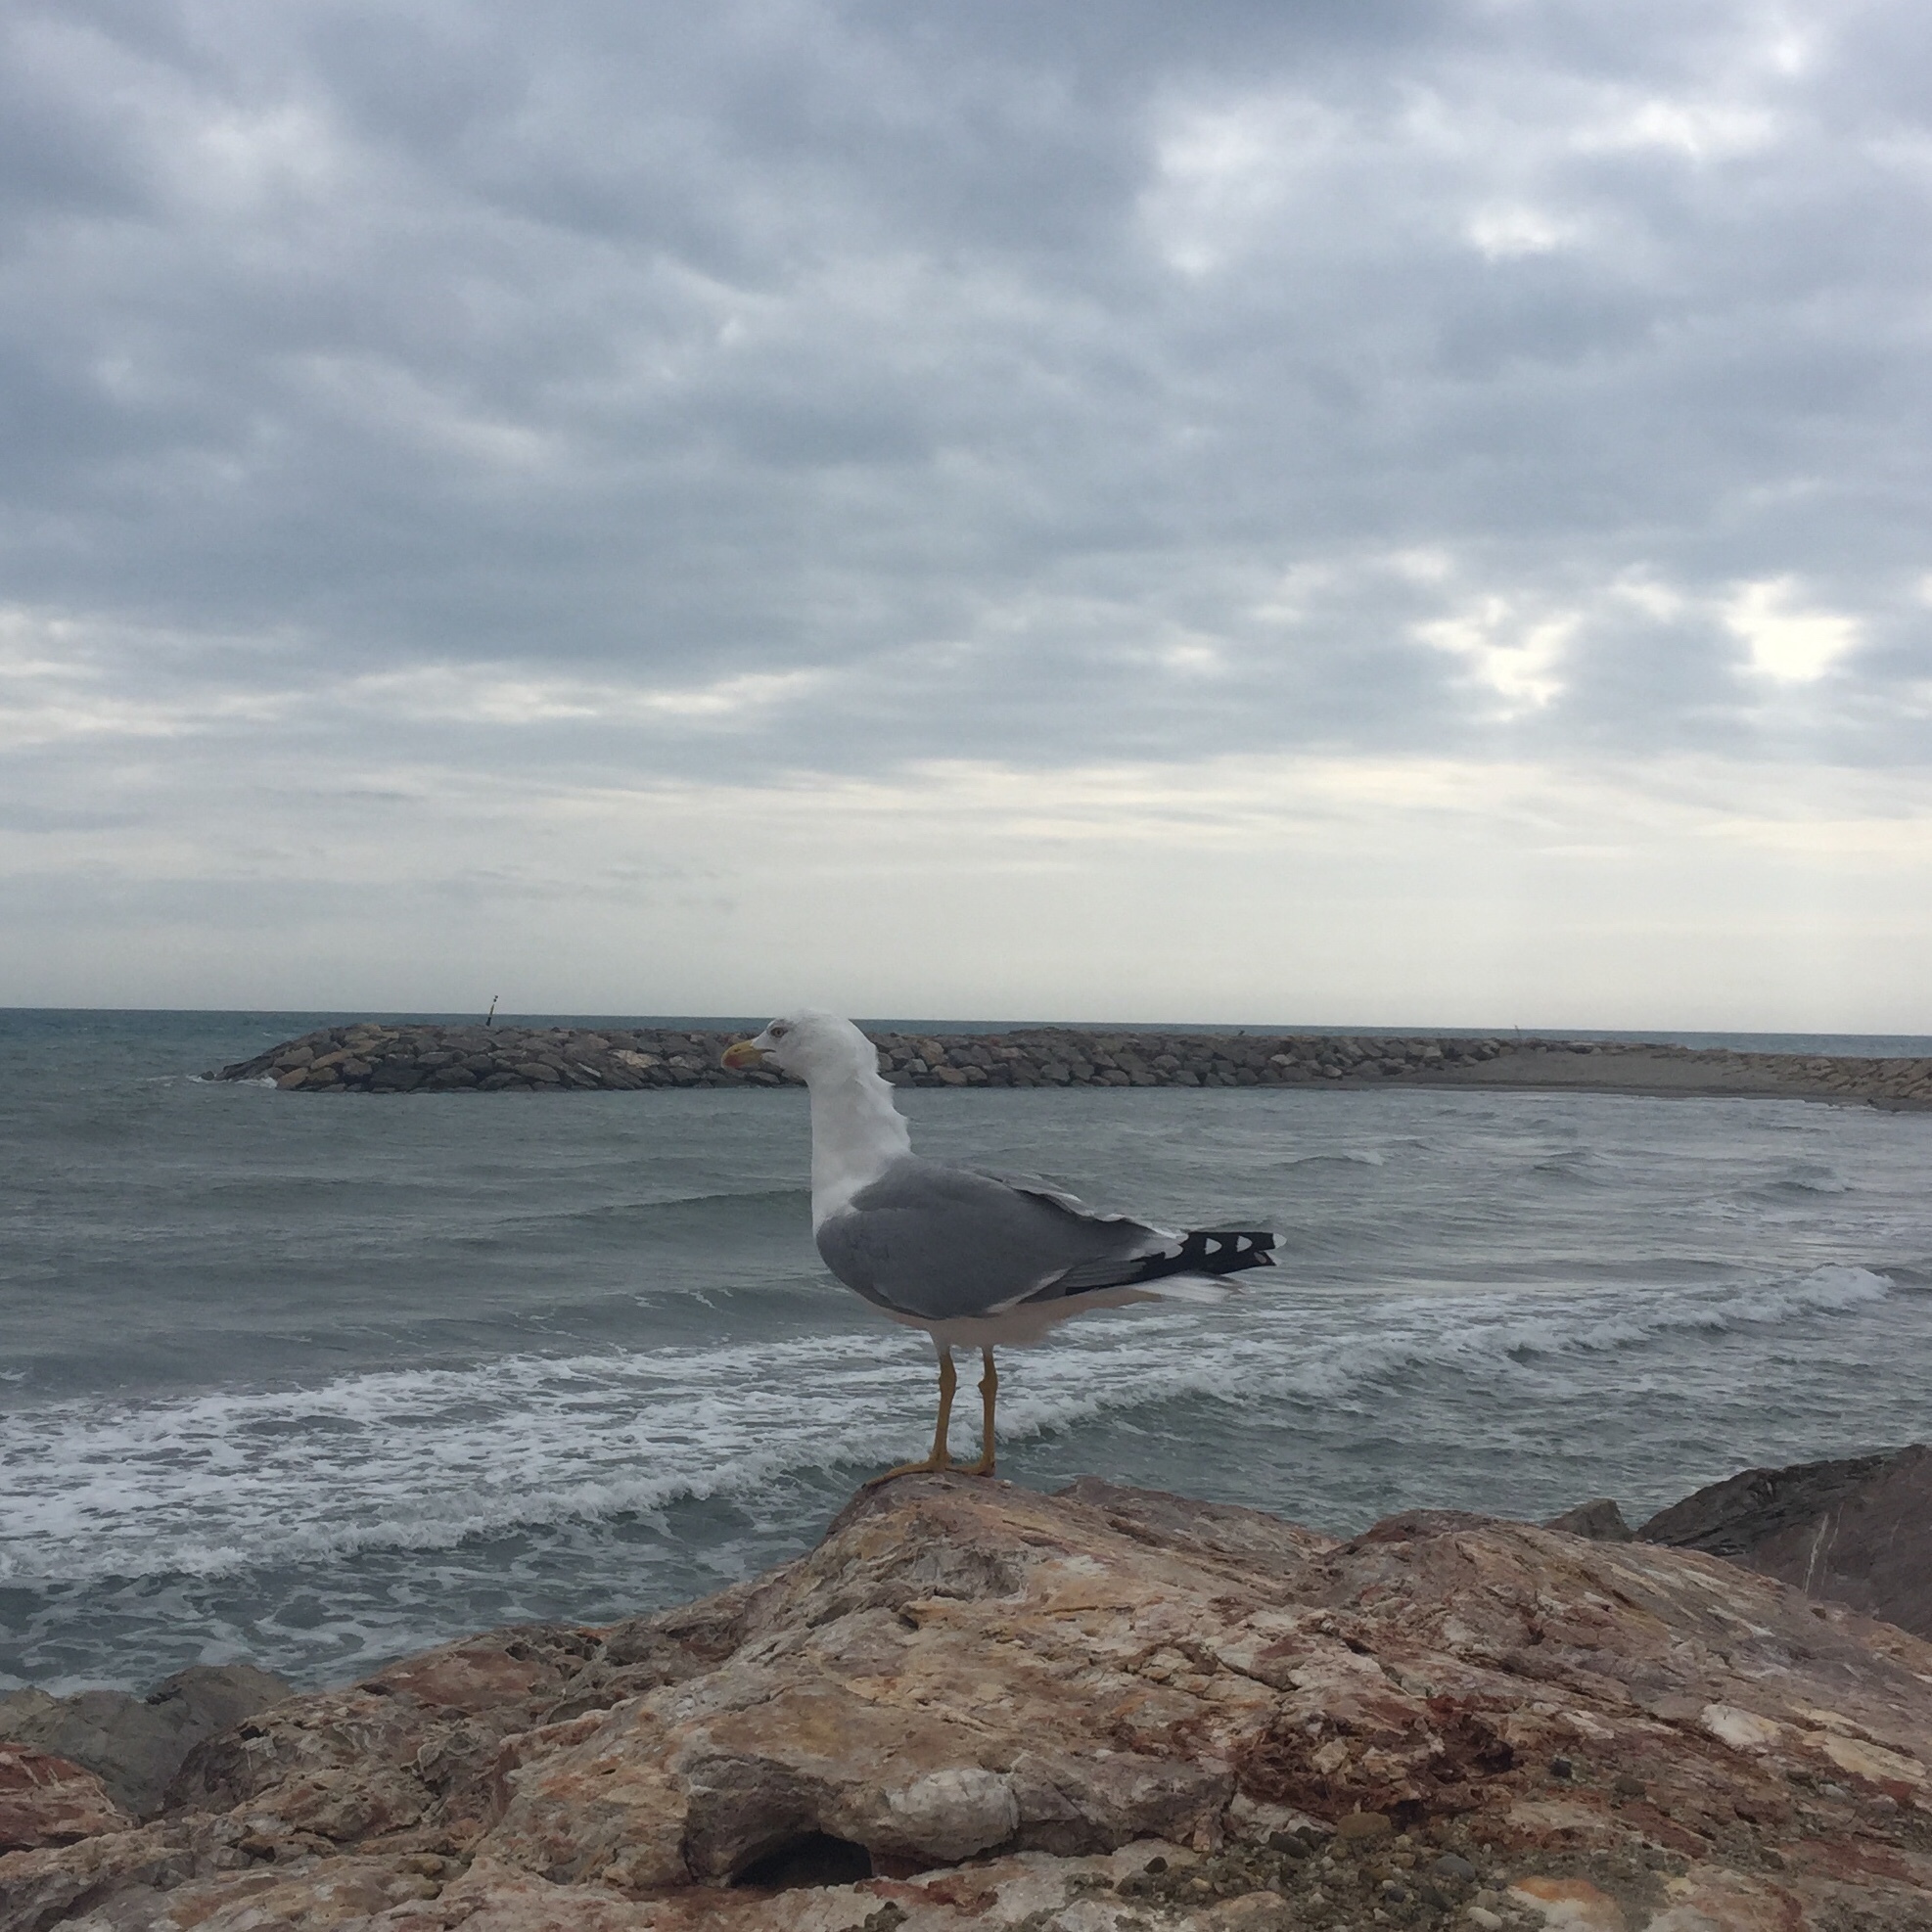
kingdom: Animalia
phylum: Chordata
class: Aves
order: Charadriiformes
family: Laridae
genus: Chroicocephalus
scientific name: Chroicocephalus ridibundus
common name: Black-headed gull
